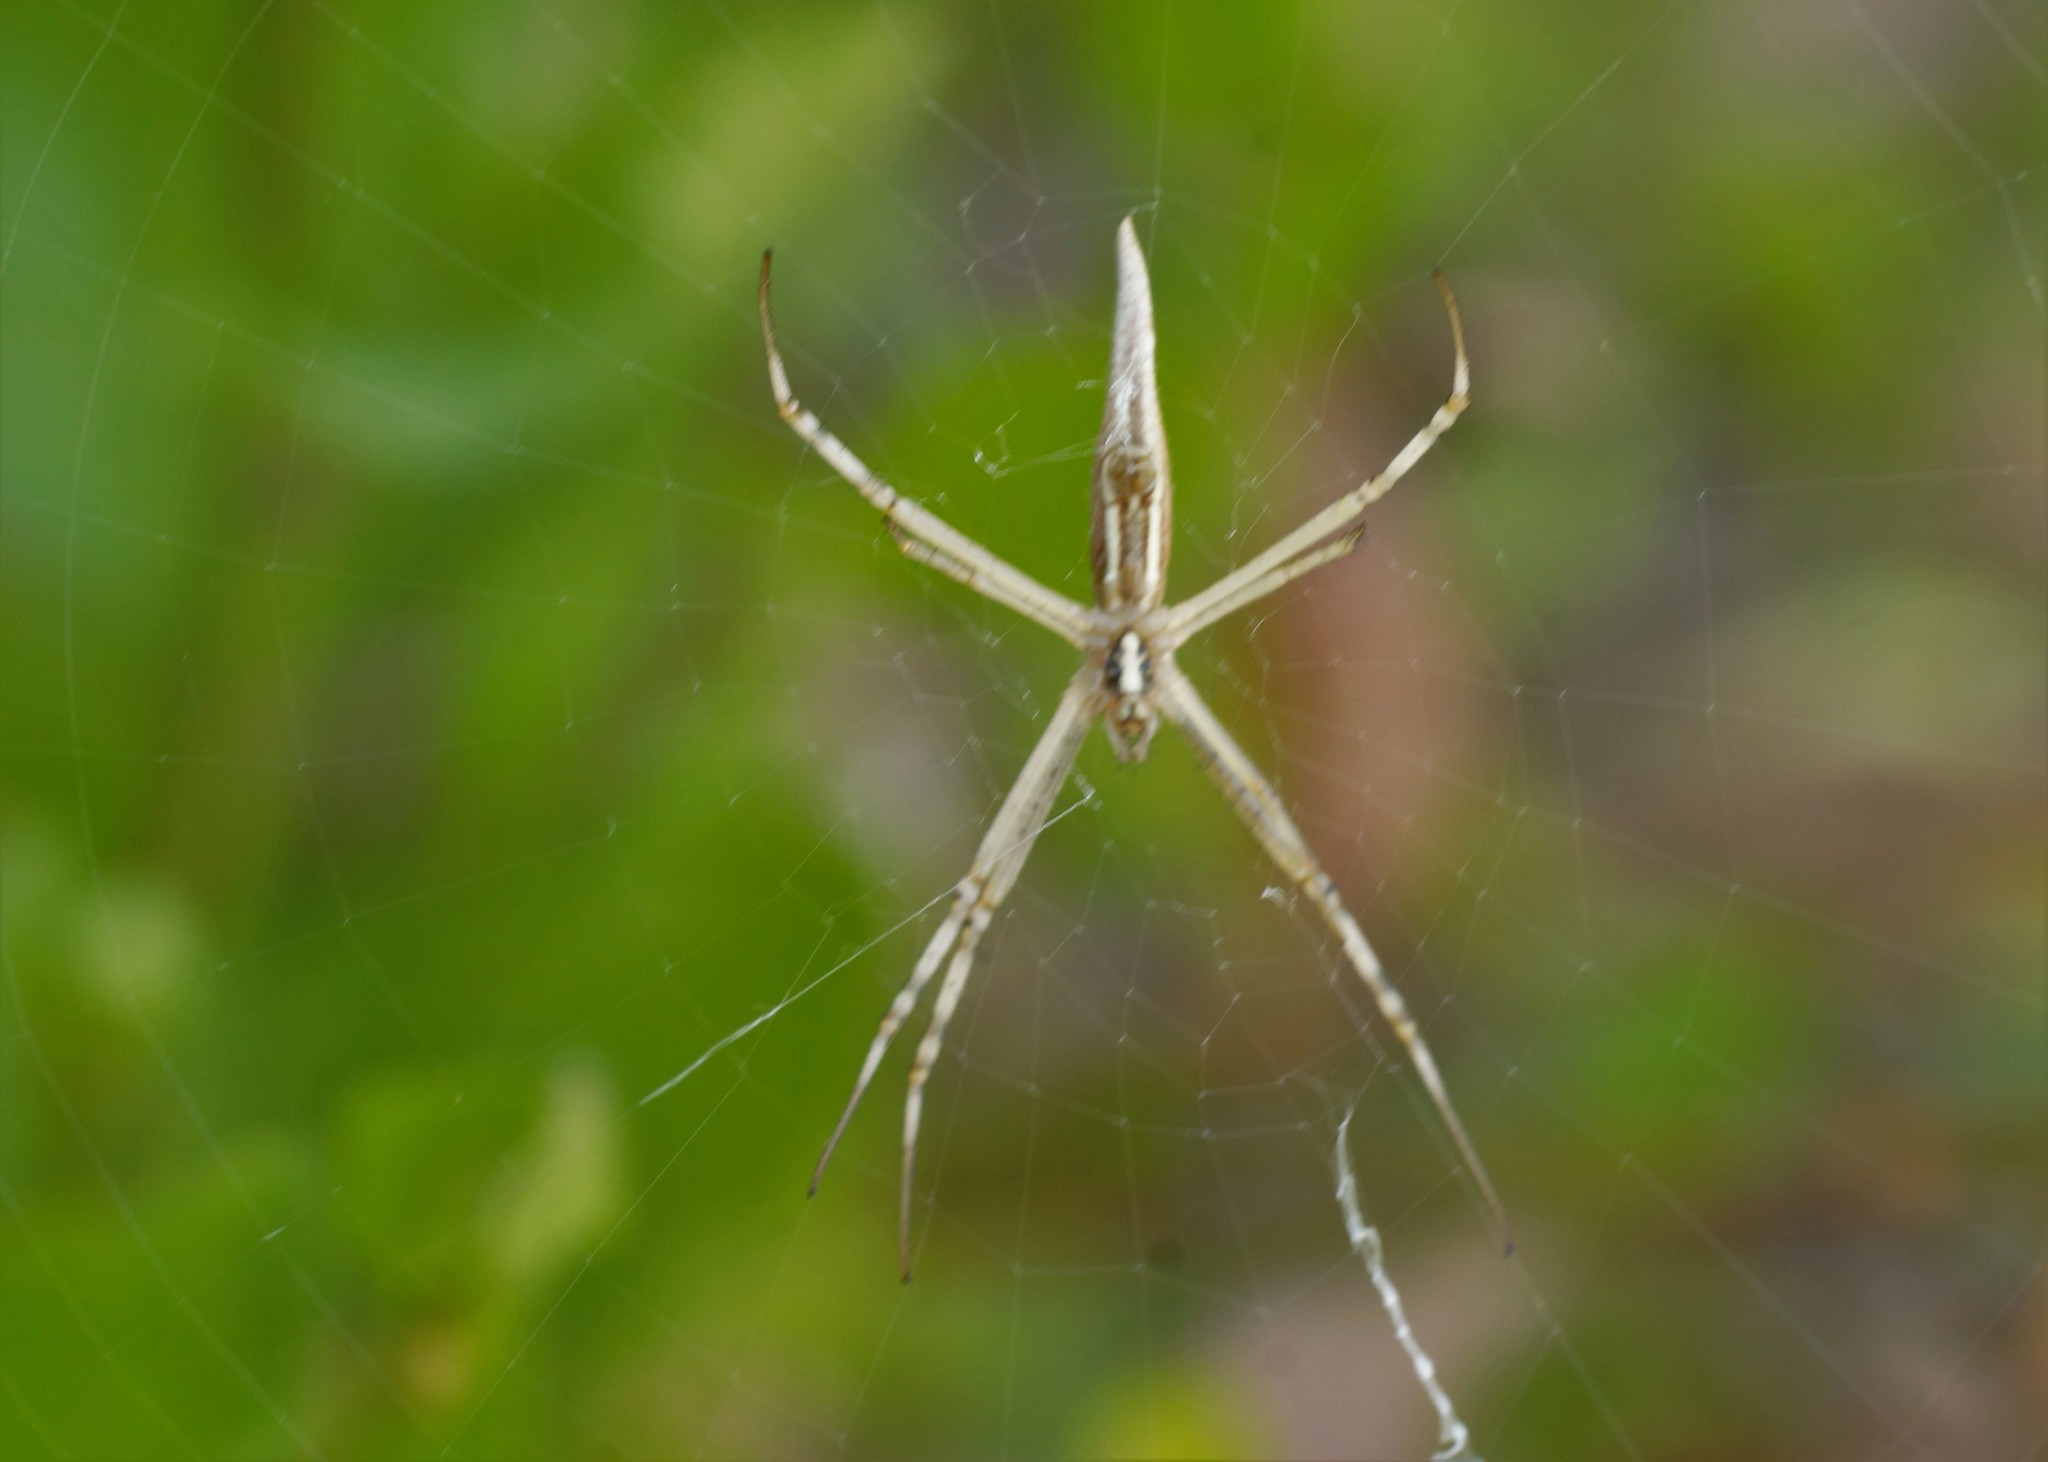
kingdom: Animalia
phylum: Arthropoda
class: Arachnida
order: Araneae
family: Araneidae
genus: Argiope
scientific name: Argiope protensa
